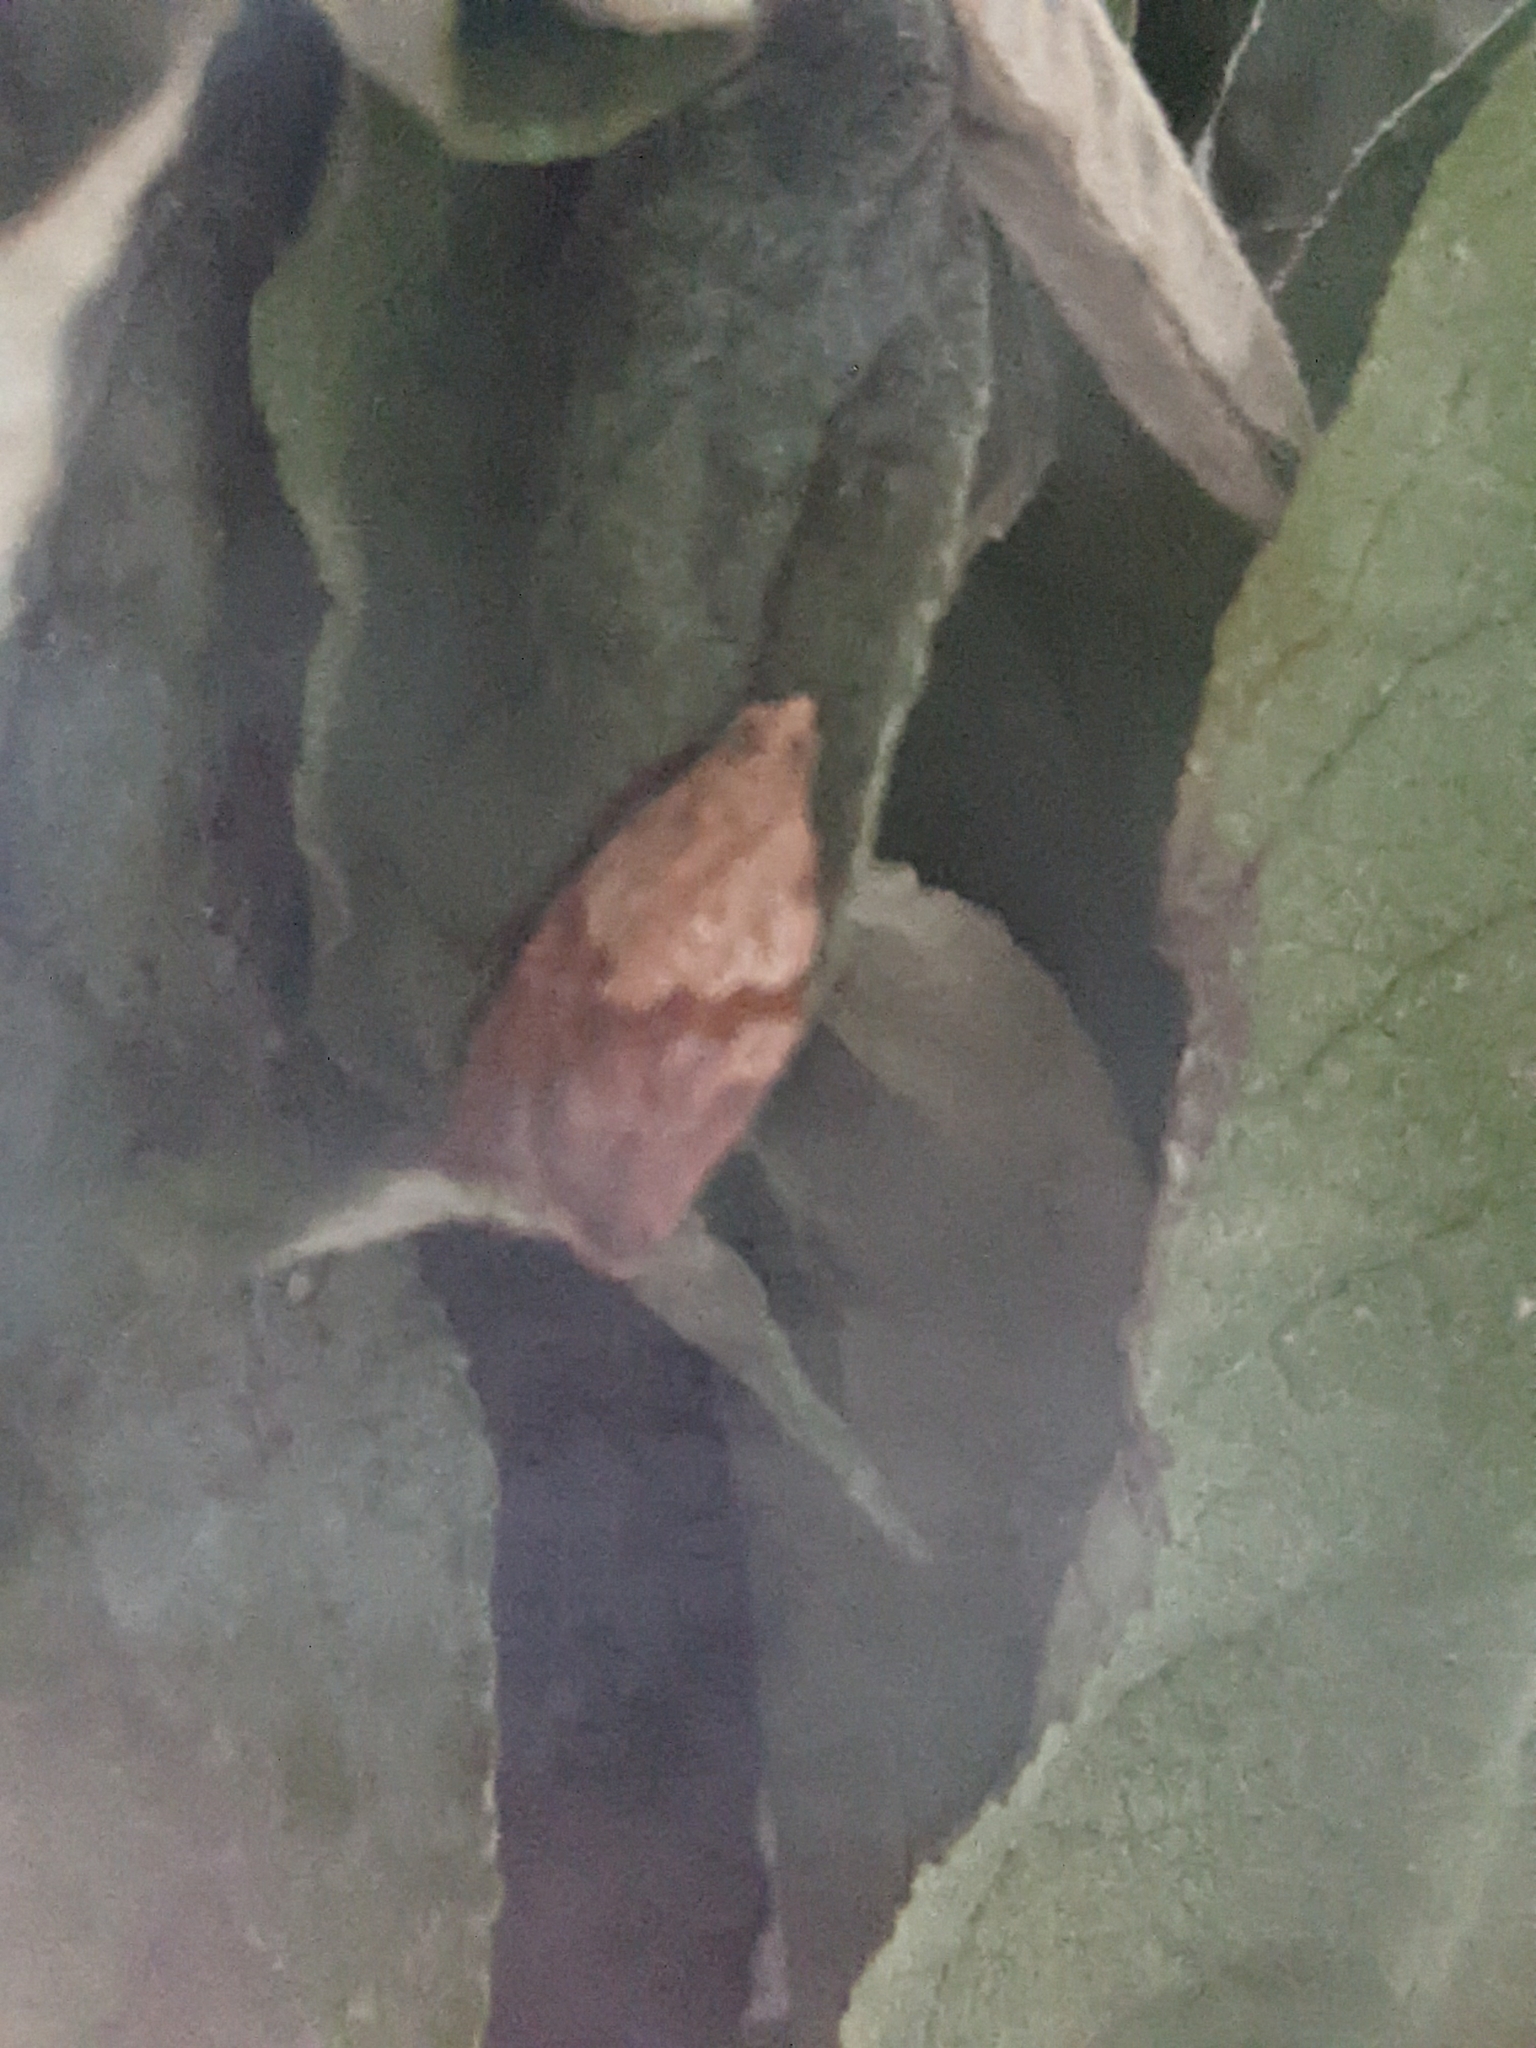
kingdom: Animalia
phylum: Arthropoda
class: Insecta
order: Lepidoptera
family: Tortricidae
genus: Epiphyas
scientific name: Epiphyas postvittana
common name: Light brown apple moth
